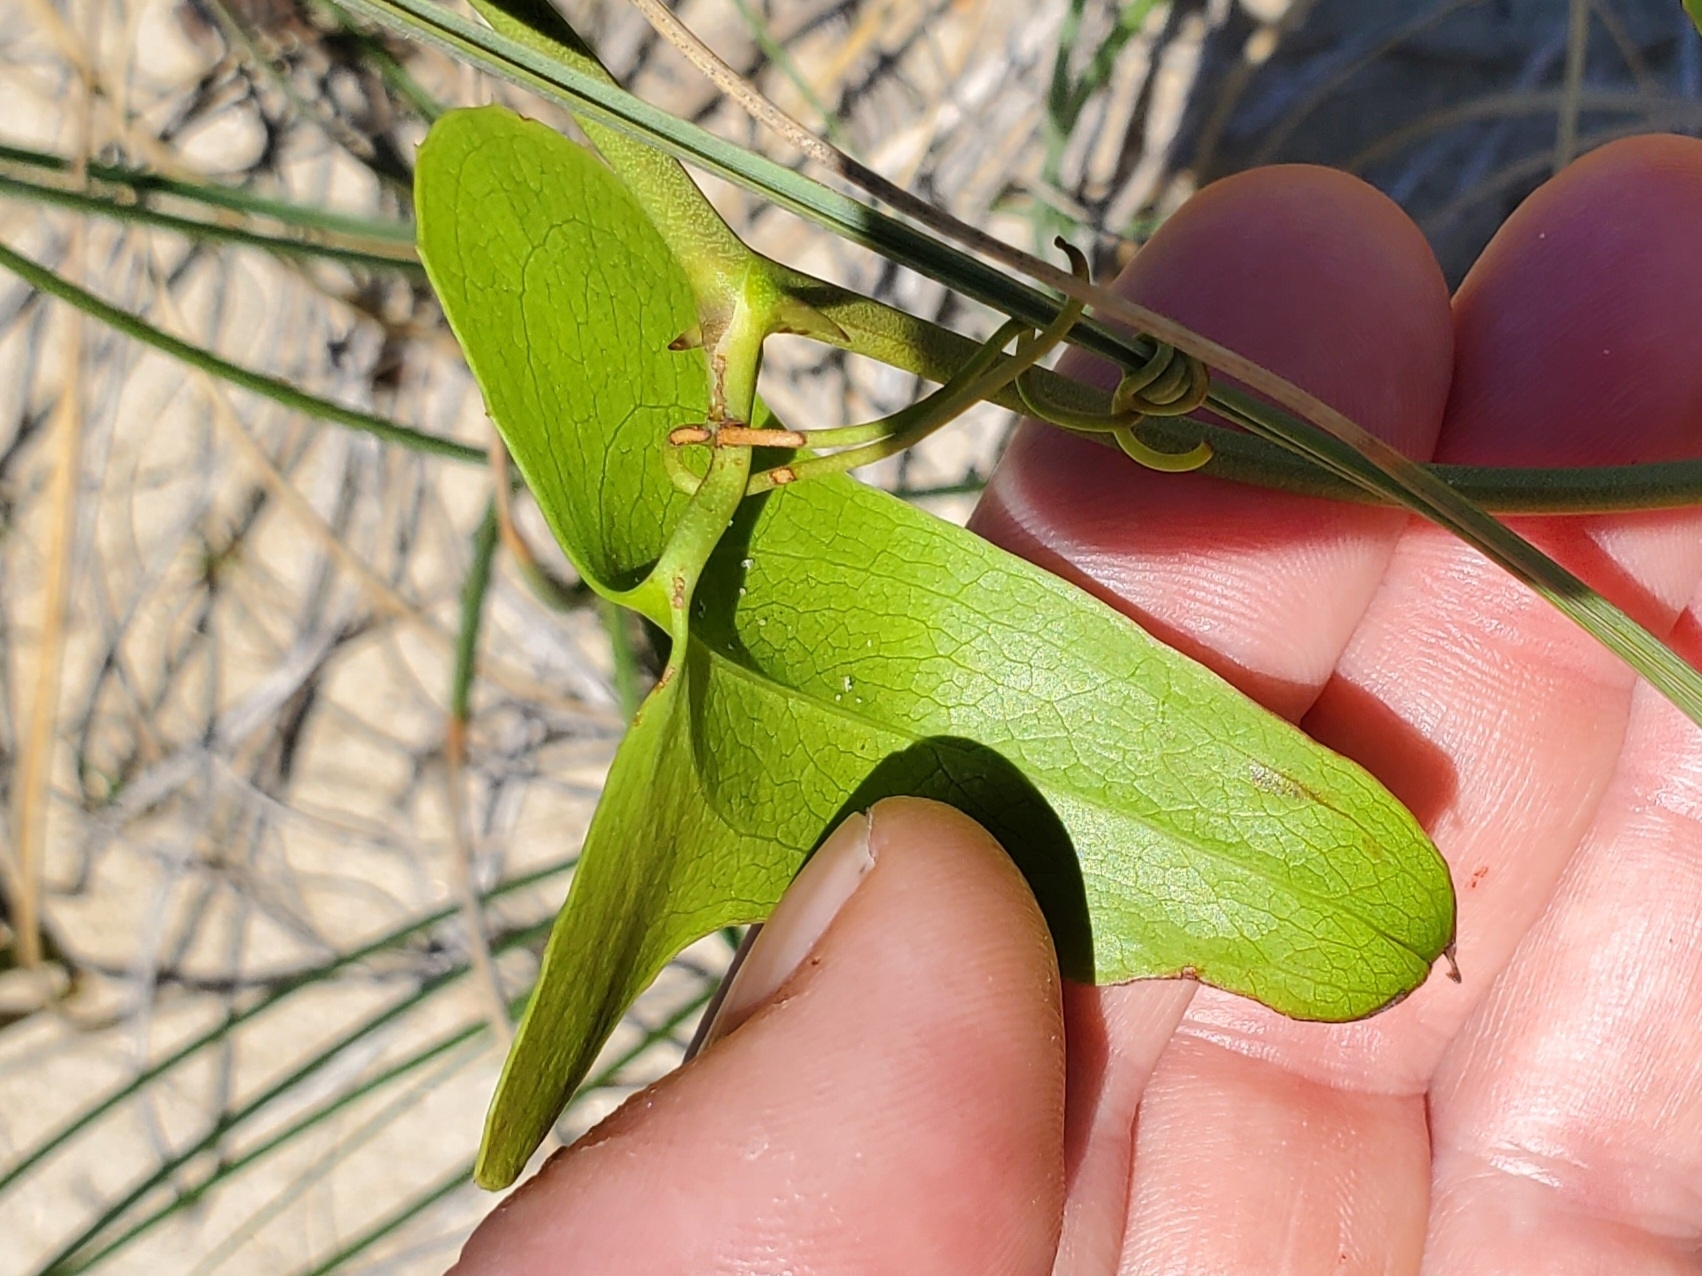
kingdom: Plantae
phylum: Tracheophyta
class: Liliopsida
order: Liliales
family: Smilacaceae
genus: Smilax
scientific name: Smilax bona-nox
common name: Catbrier
